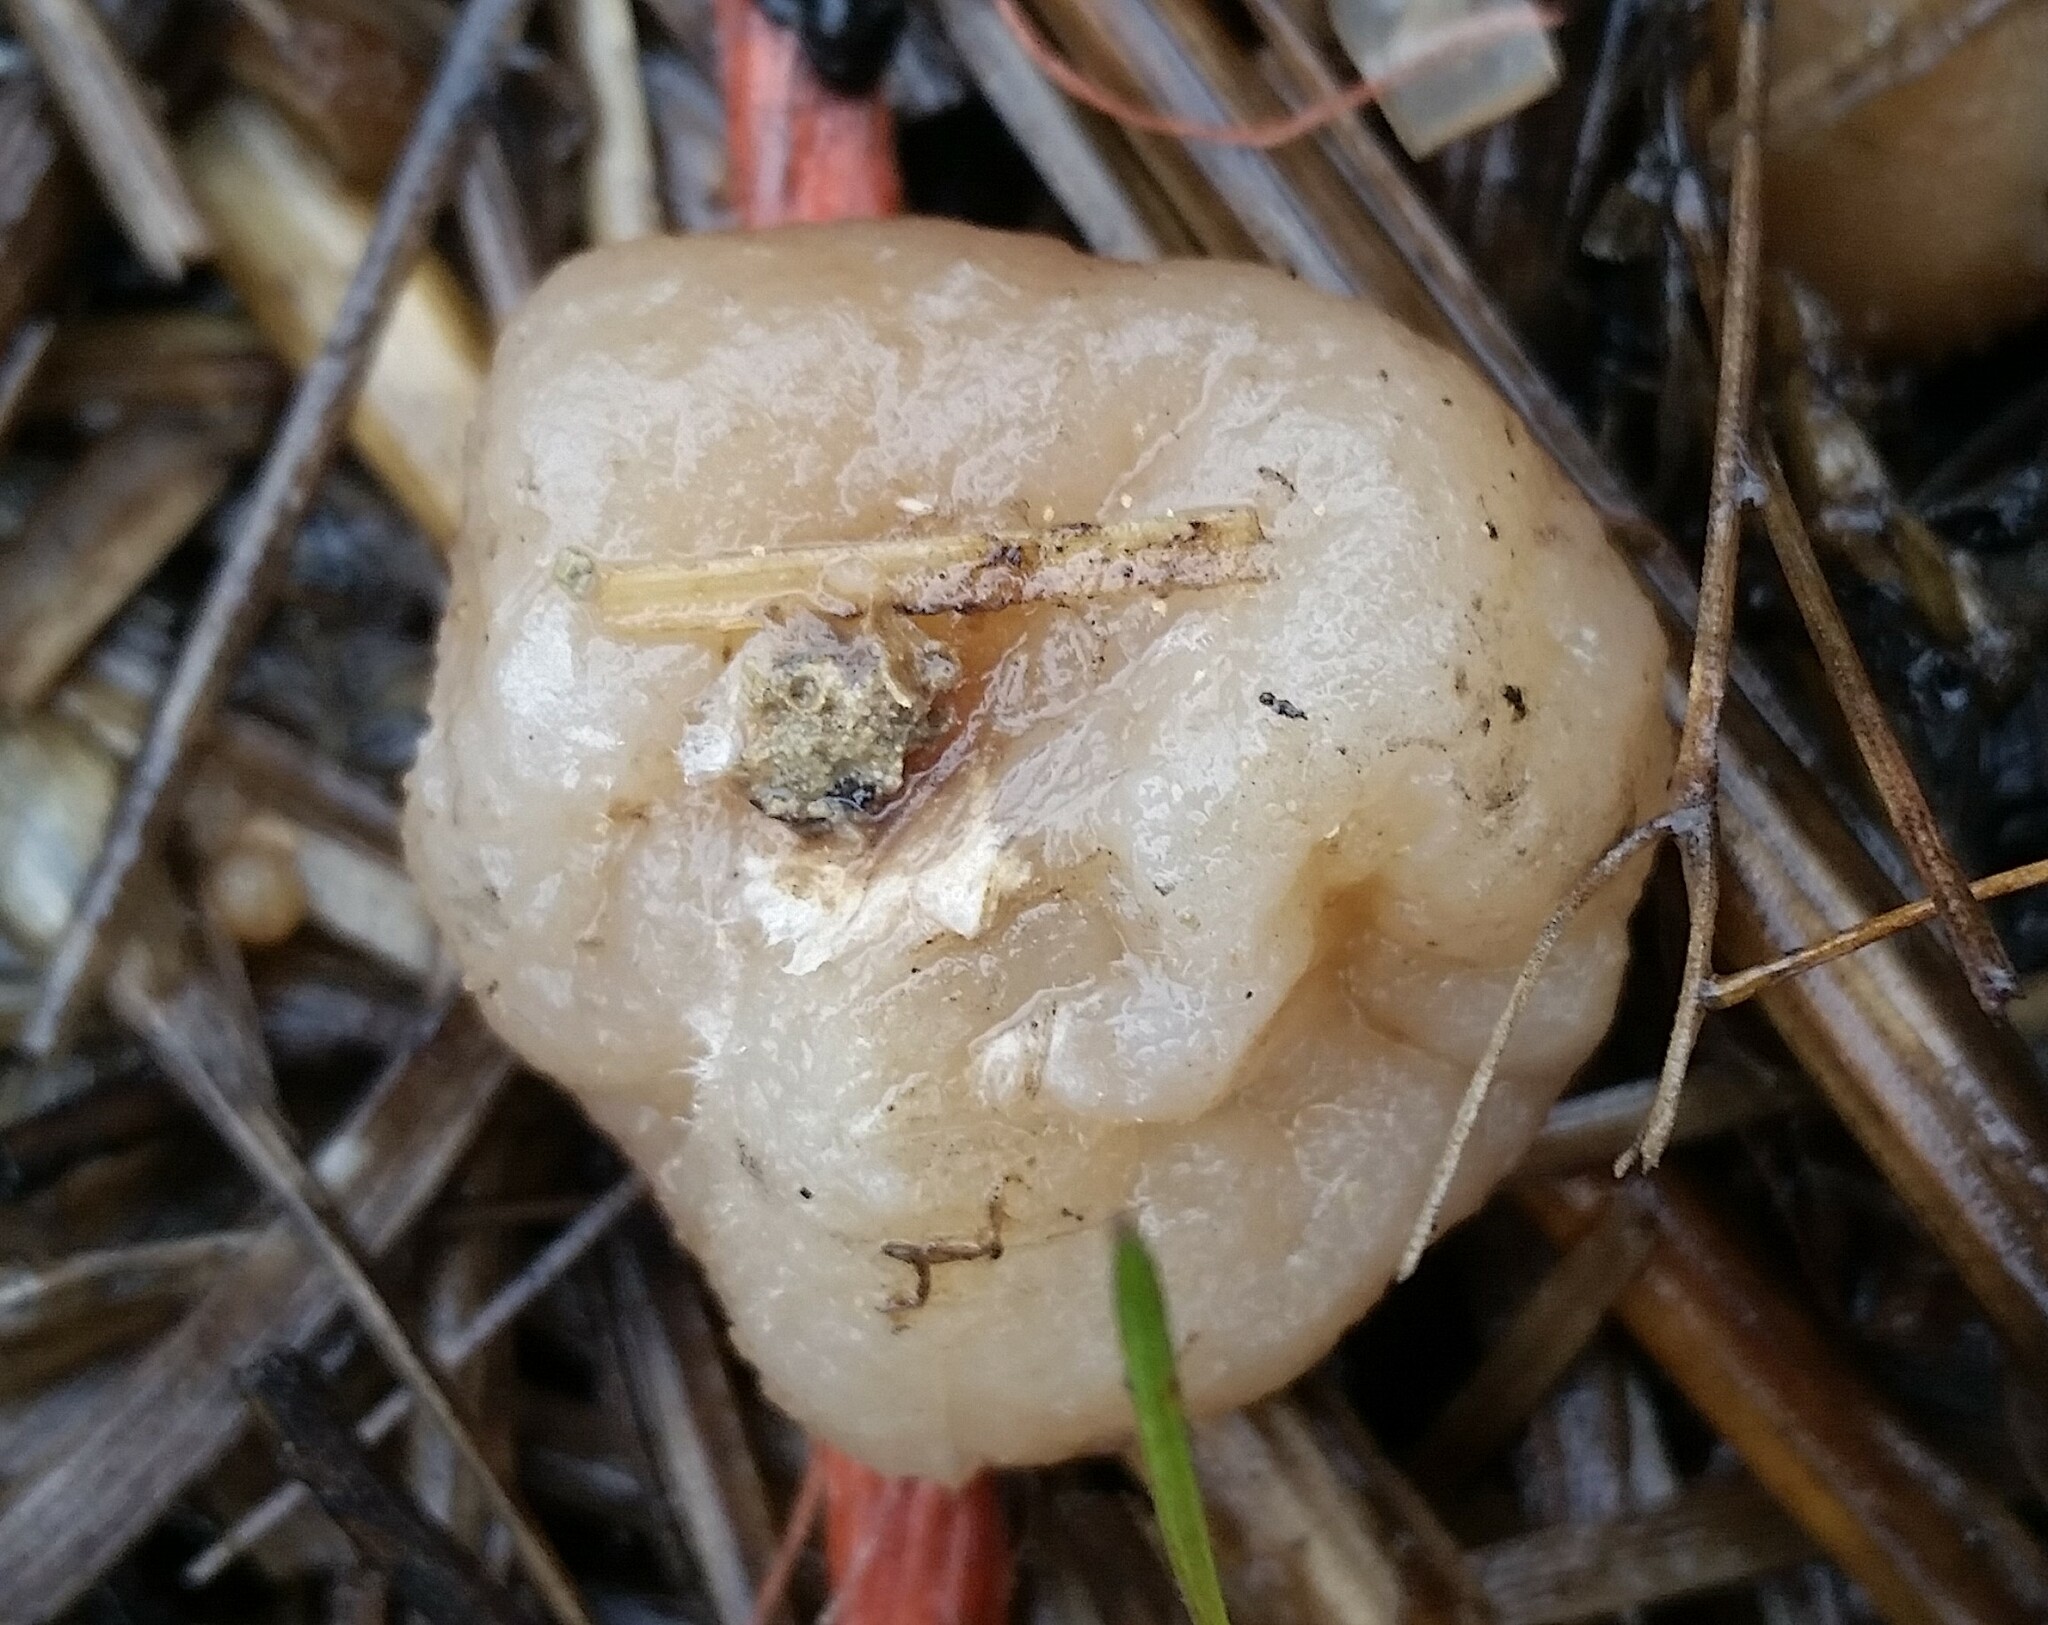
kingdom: Fungi
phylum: Ascomycota
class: Pezizomycetes
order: Pezizales
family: Pezizaceae
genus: Peziza
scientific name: Peziza vesiculosa
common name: Blistered cup
